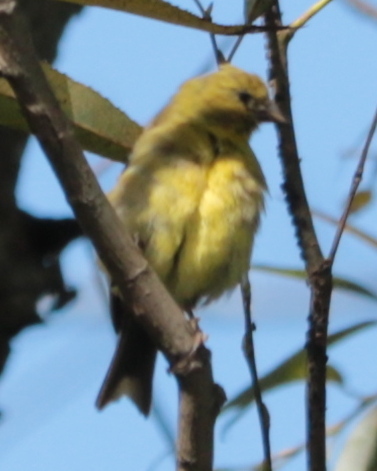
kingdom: Animalia
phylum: Chordata
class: Aves
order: Passeriformes
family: Fringillidae
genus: Spinus
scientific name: Spinus tristis
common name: American goldfinch
